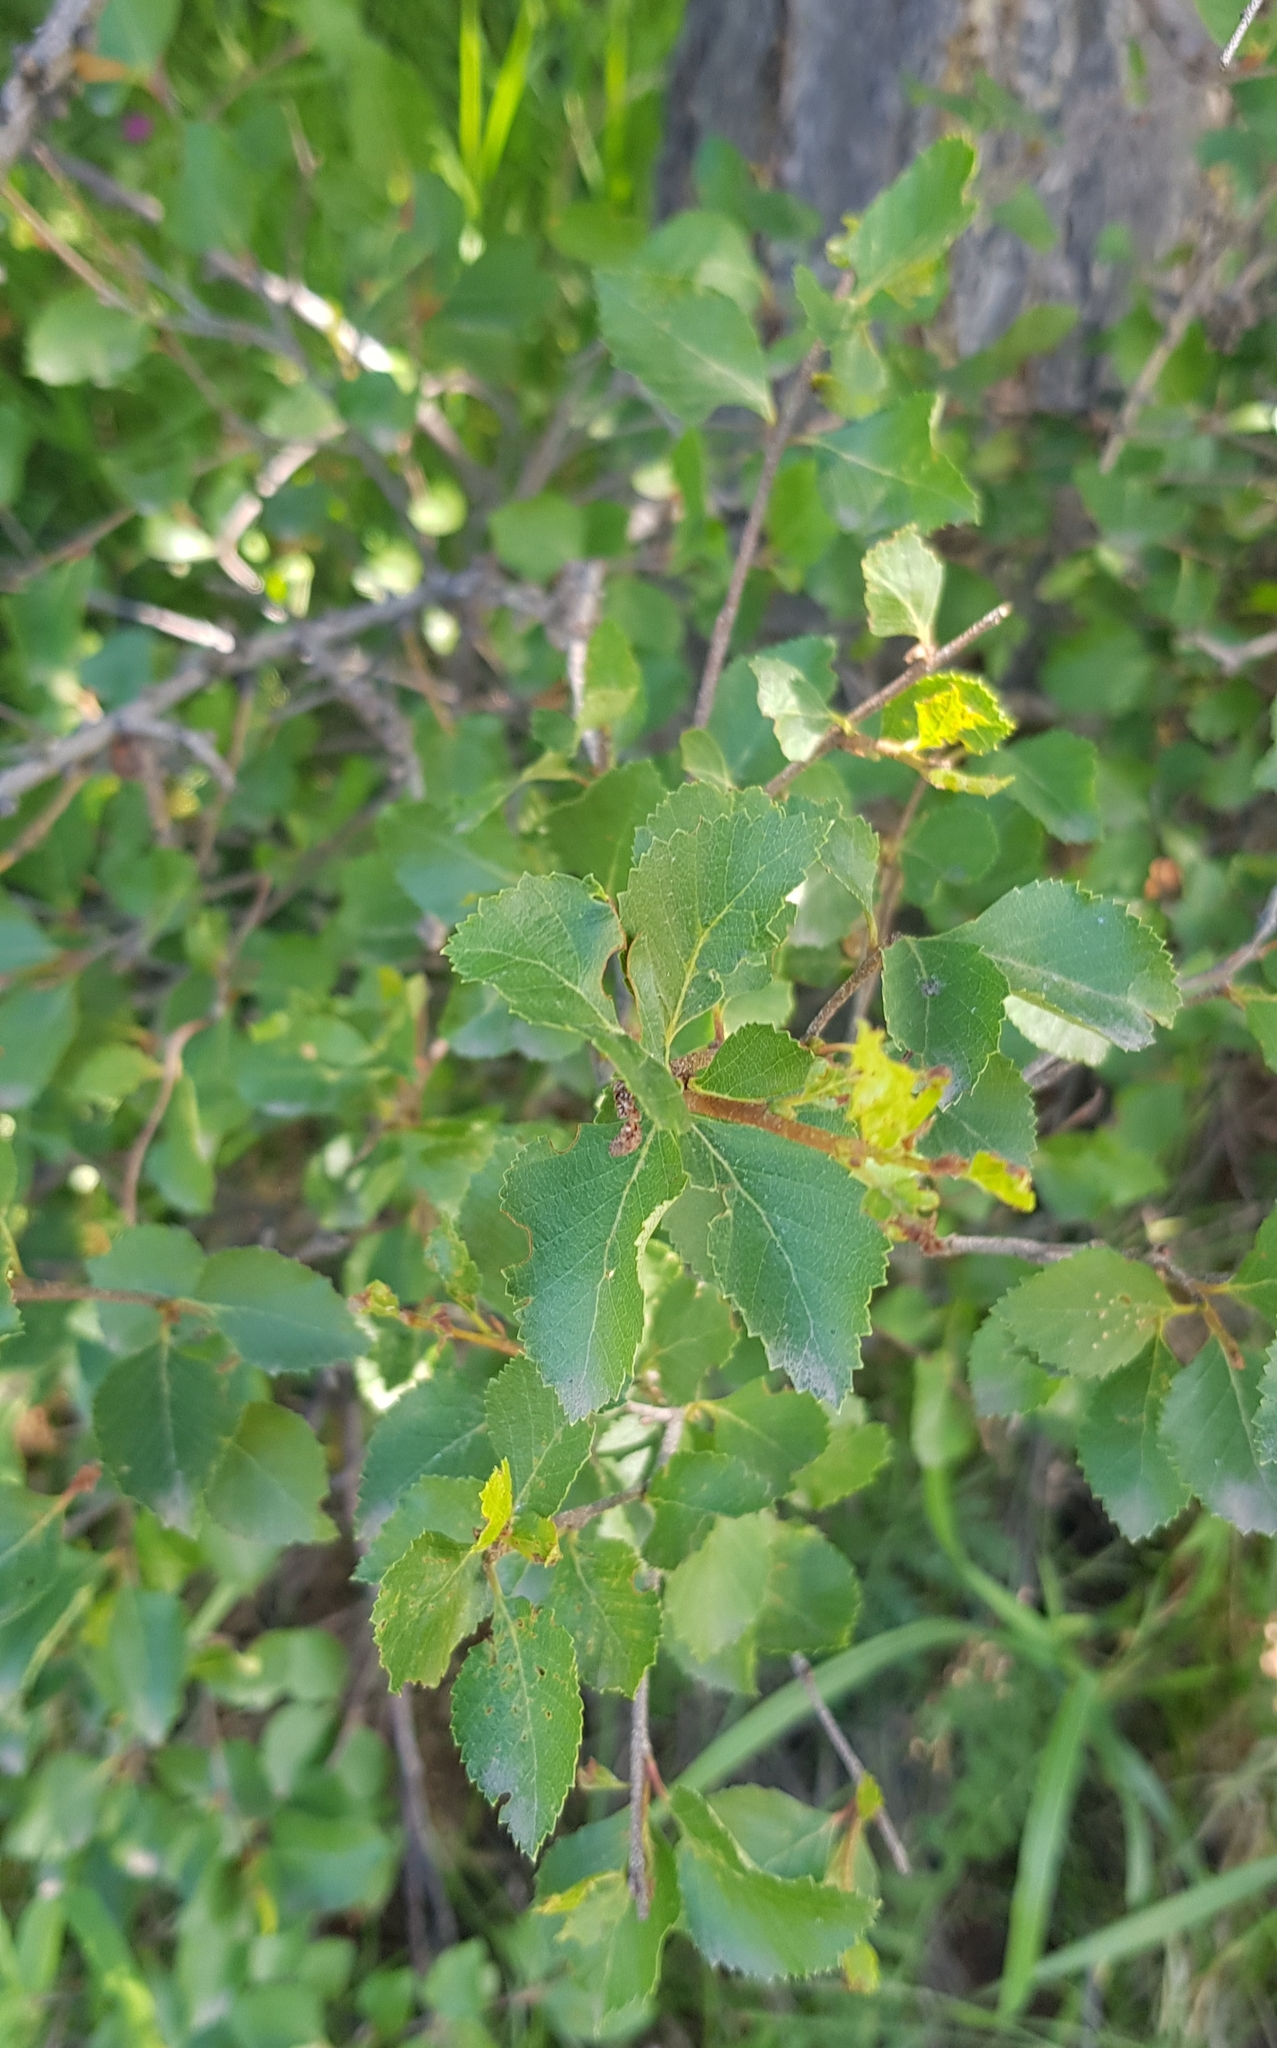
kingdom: Plantae
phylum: Tracheophyta
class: Magnoliopsida
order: Fagales
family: Betulaceae
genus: Betula
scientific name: Betula fruticosa
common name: Japanese bog birch
